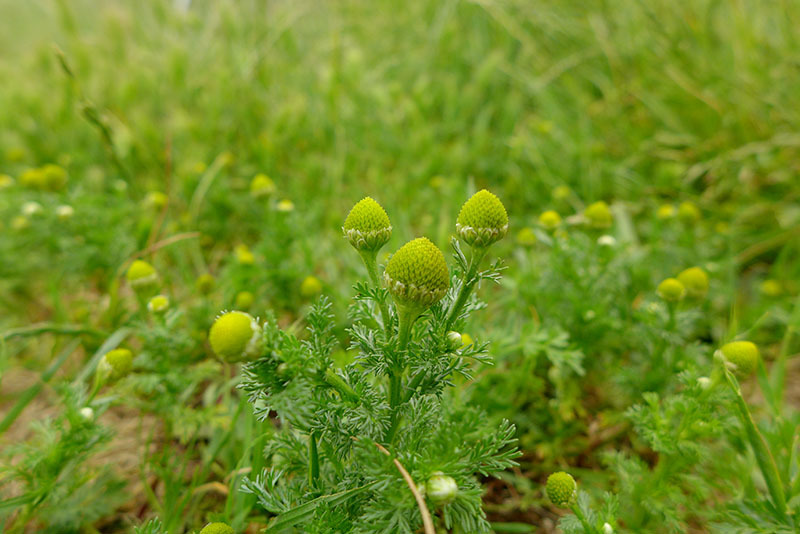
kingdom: Plantae
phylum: Tracheophyta
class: Magnoliopsida
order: Asterales
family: Asteraceae
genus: Matricaria
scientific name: Matricaria discoidea
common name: Disc mayweed
